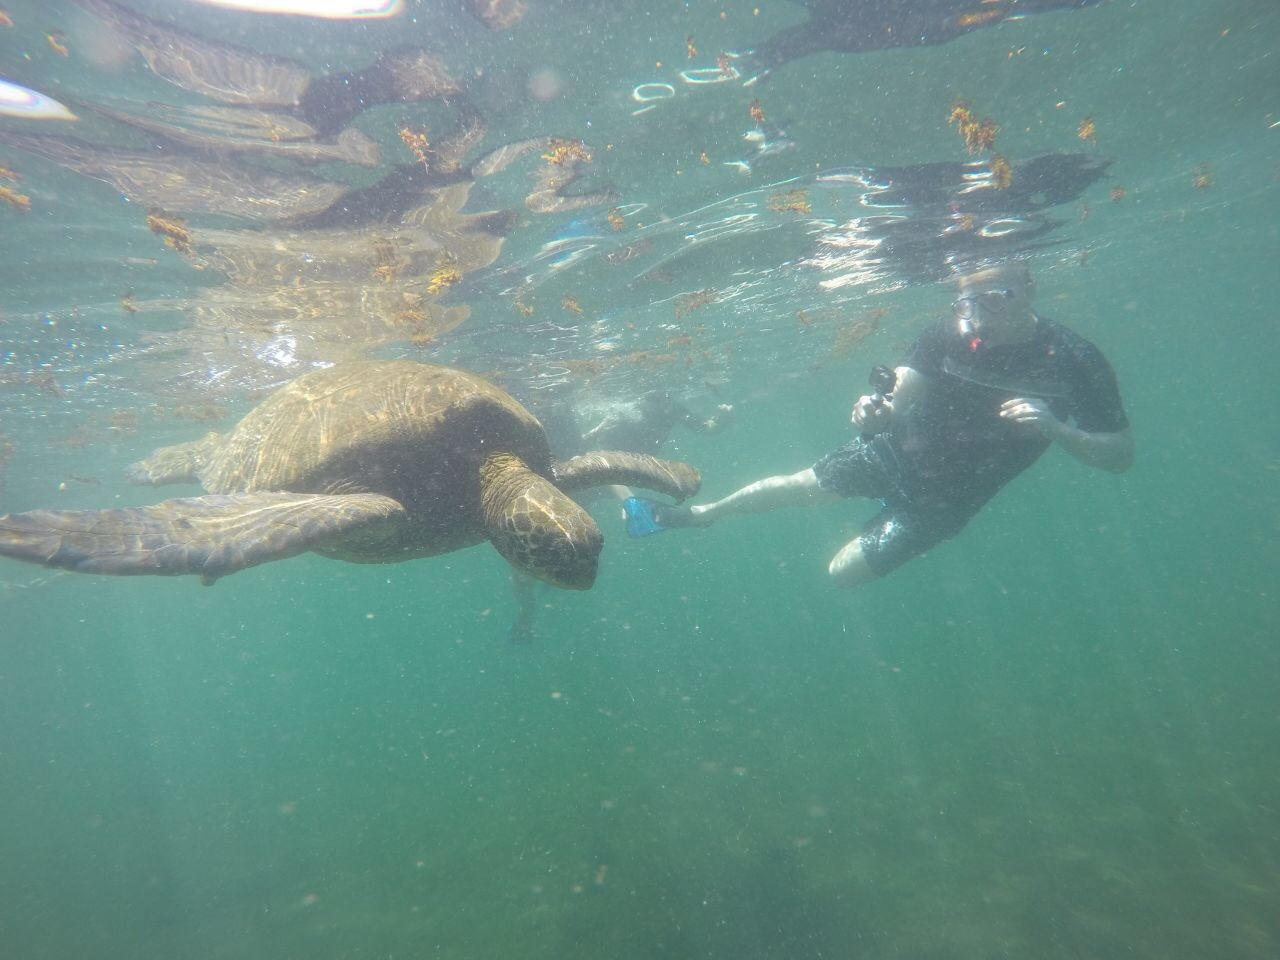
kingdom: Animalia
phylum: Chordata
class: Testudines
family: Cheloniidae
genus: Chelonia
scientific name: Chelonia mydas
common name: Green turtle
